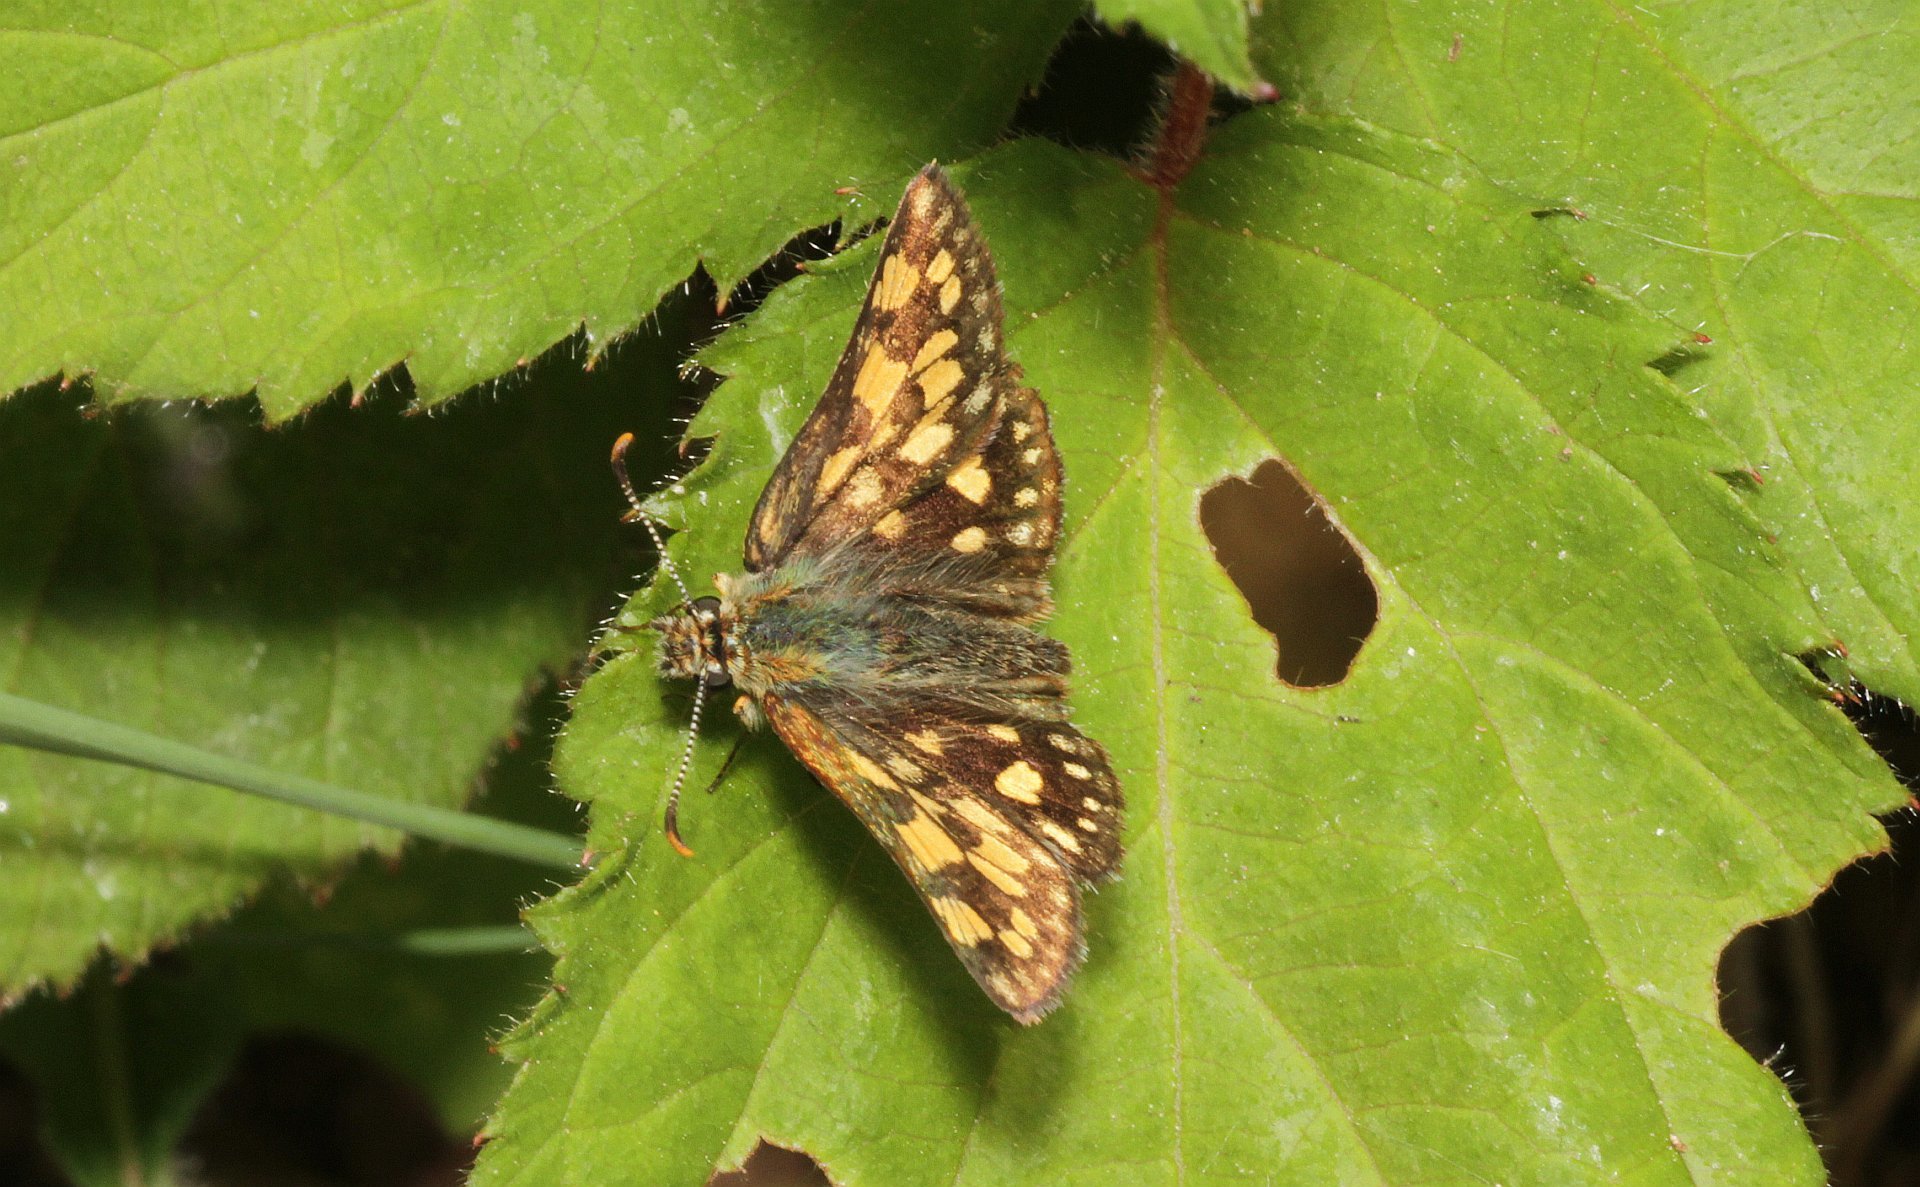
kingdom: Animalia
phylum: Arthropoda
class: Insecta
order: Lepidoptera
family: Hesperiidae
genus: Carterocephalus
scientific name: Carterocephalus palaemon
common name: Chequered skipper
